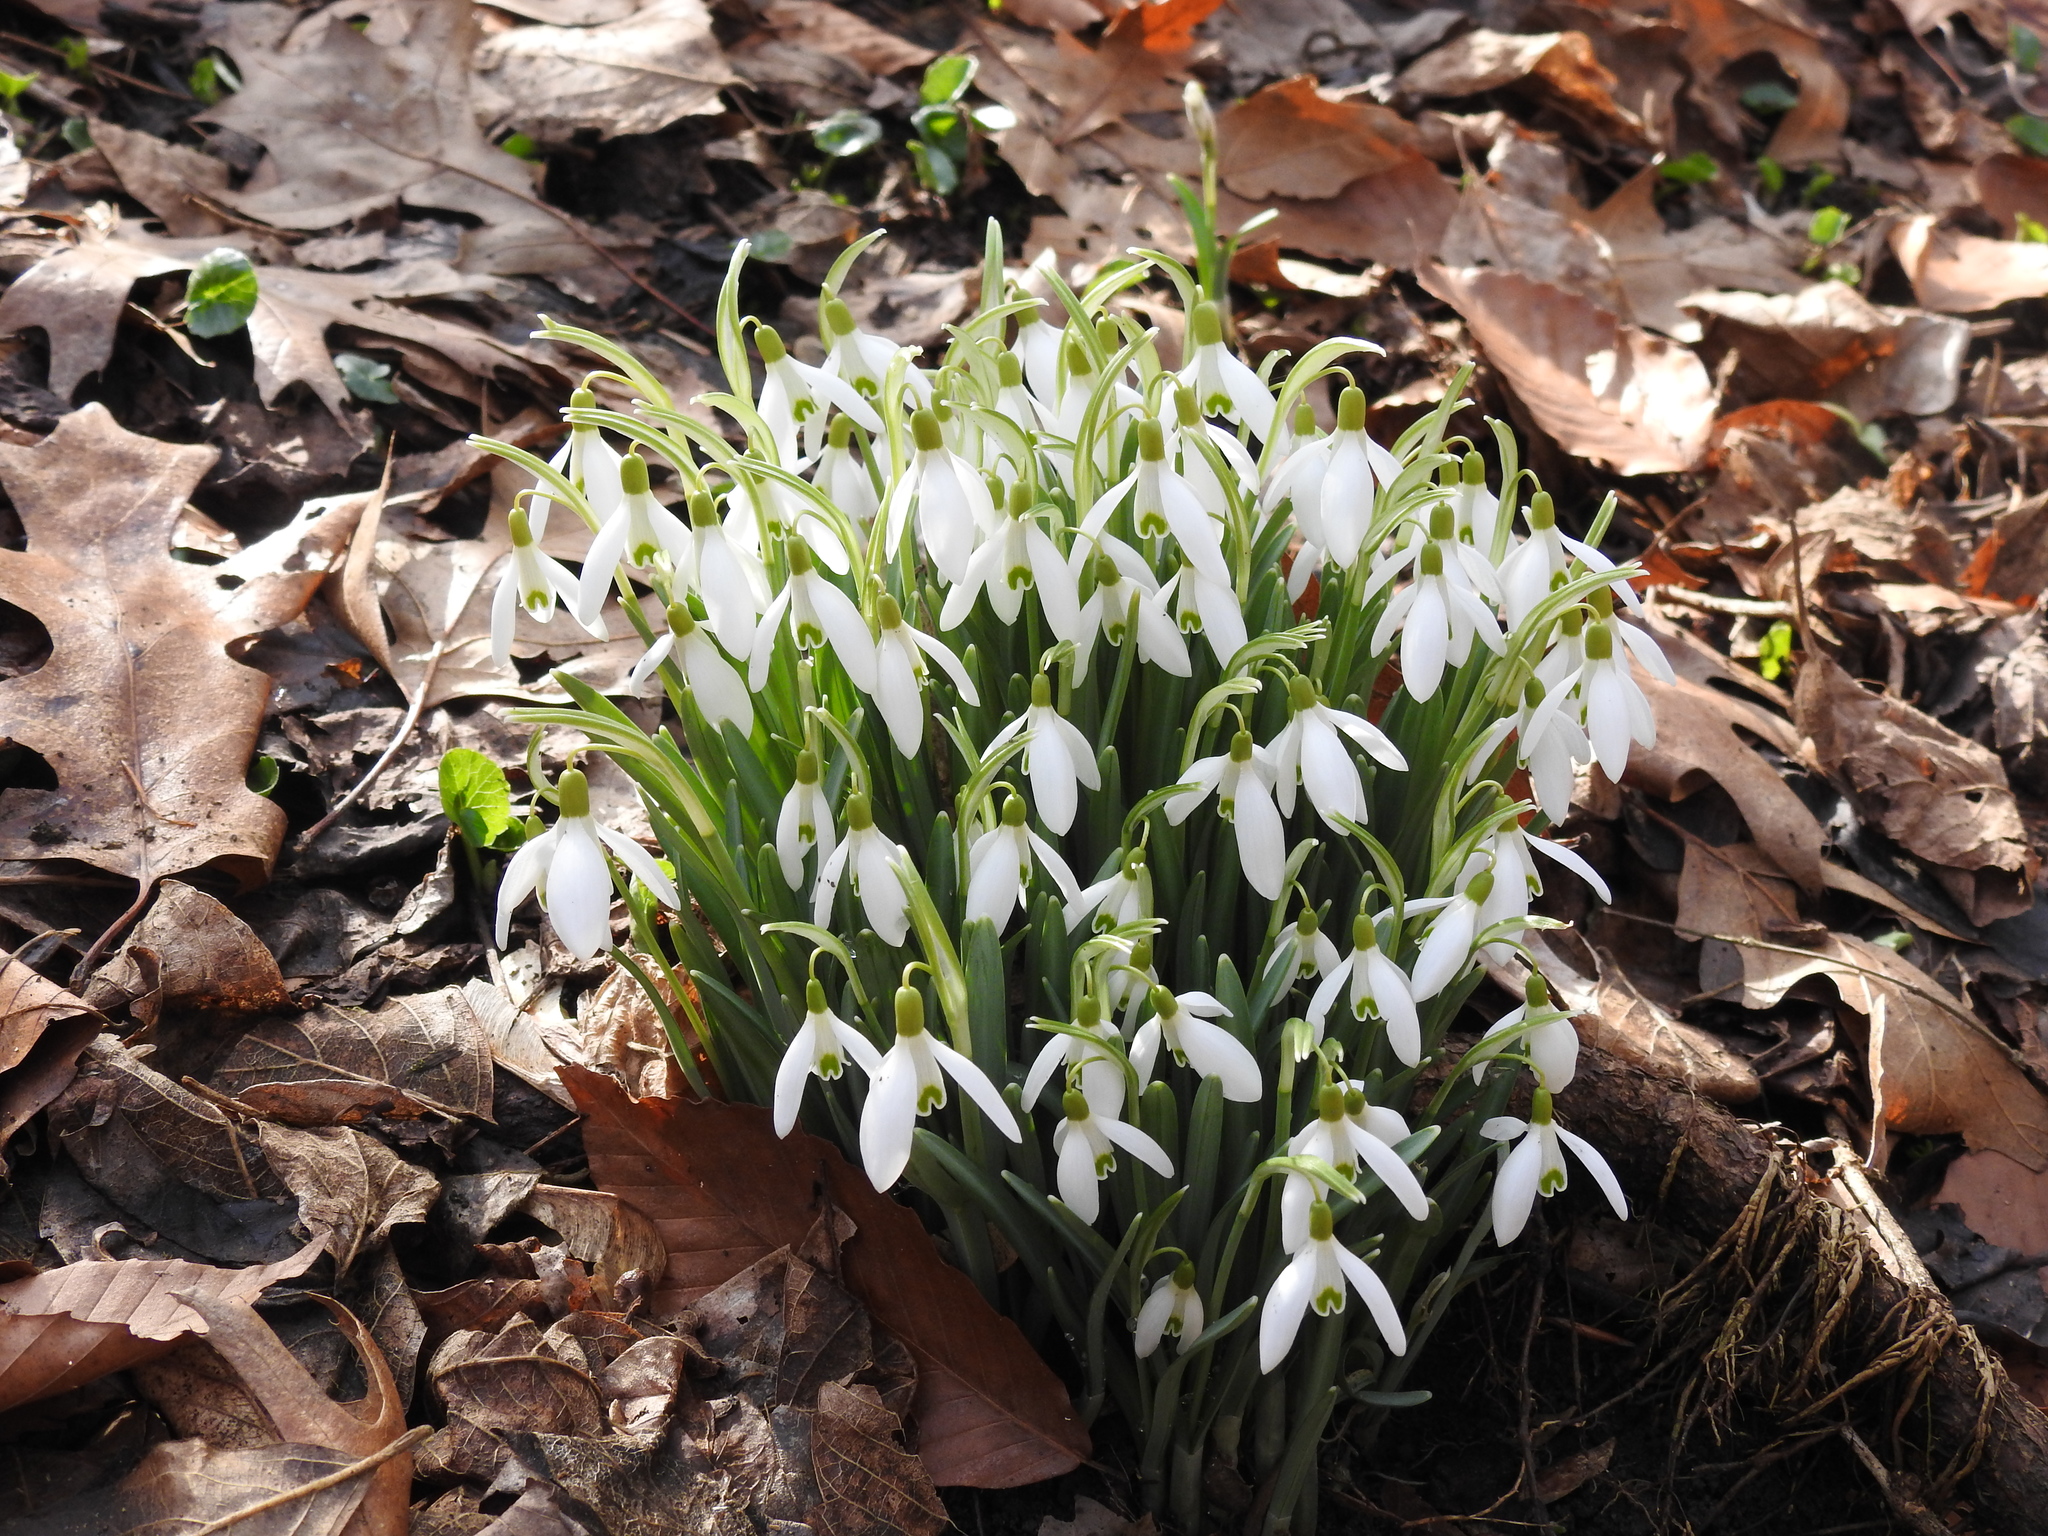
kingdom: Plantae
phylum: Tracheophyta
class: Liliopsida
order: Asparagales
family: Amaryllidaceae
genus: Galanthus
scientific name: Galanthus nivalis
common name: Snowdrop
